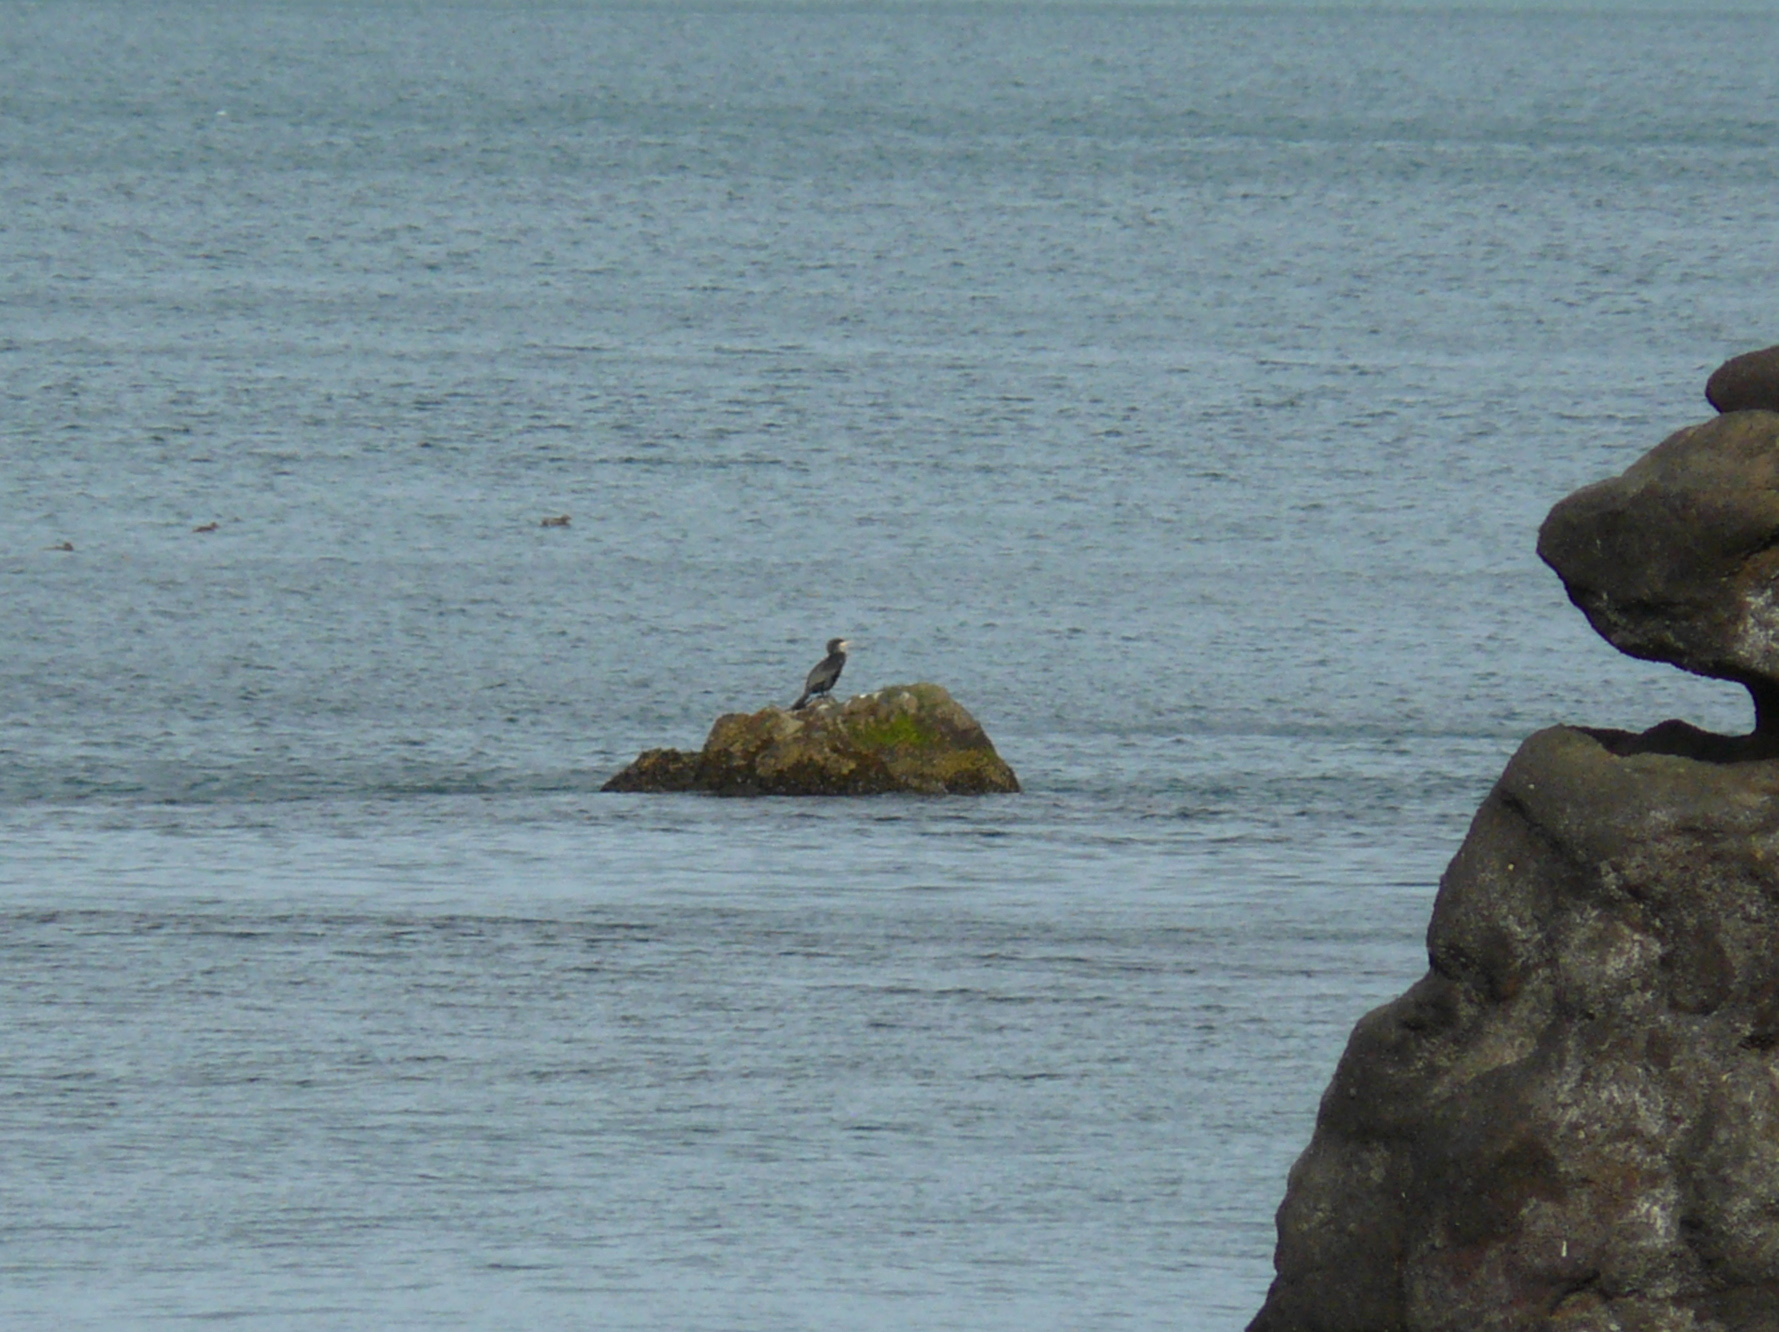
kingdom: Animalia
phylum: Chordata
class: Aves
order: Suliformes
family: Phalacrocoracidae
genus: Phalacrocorax
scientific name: Phalacrocorax carbo
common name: Great cormorant
